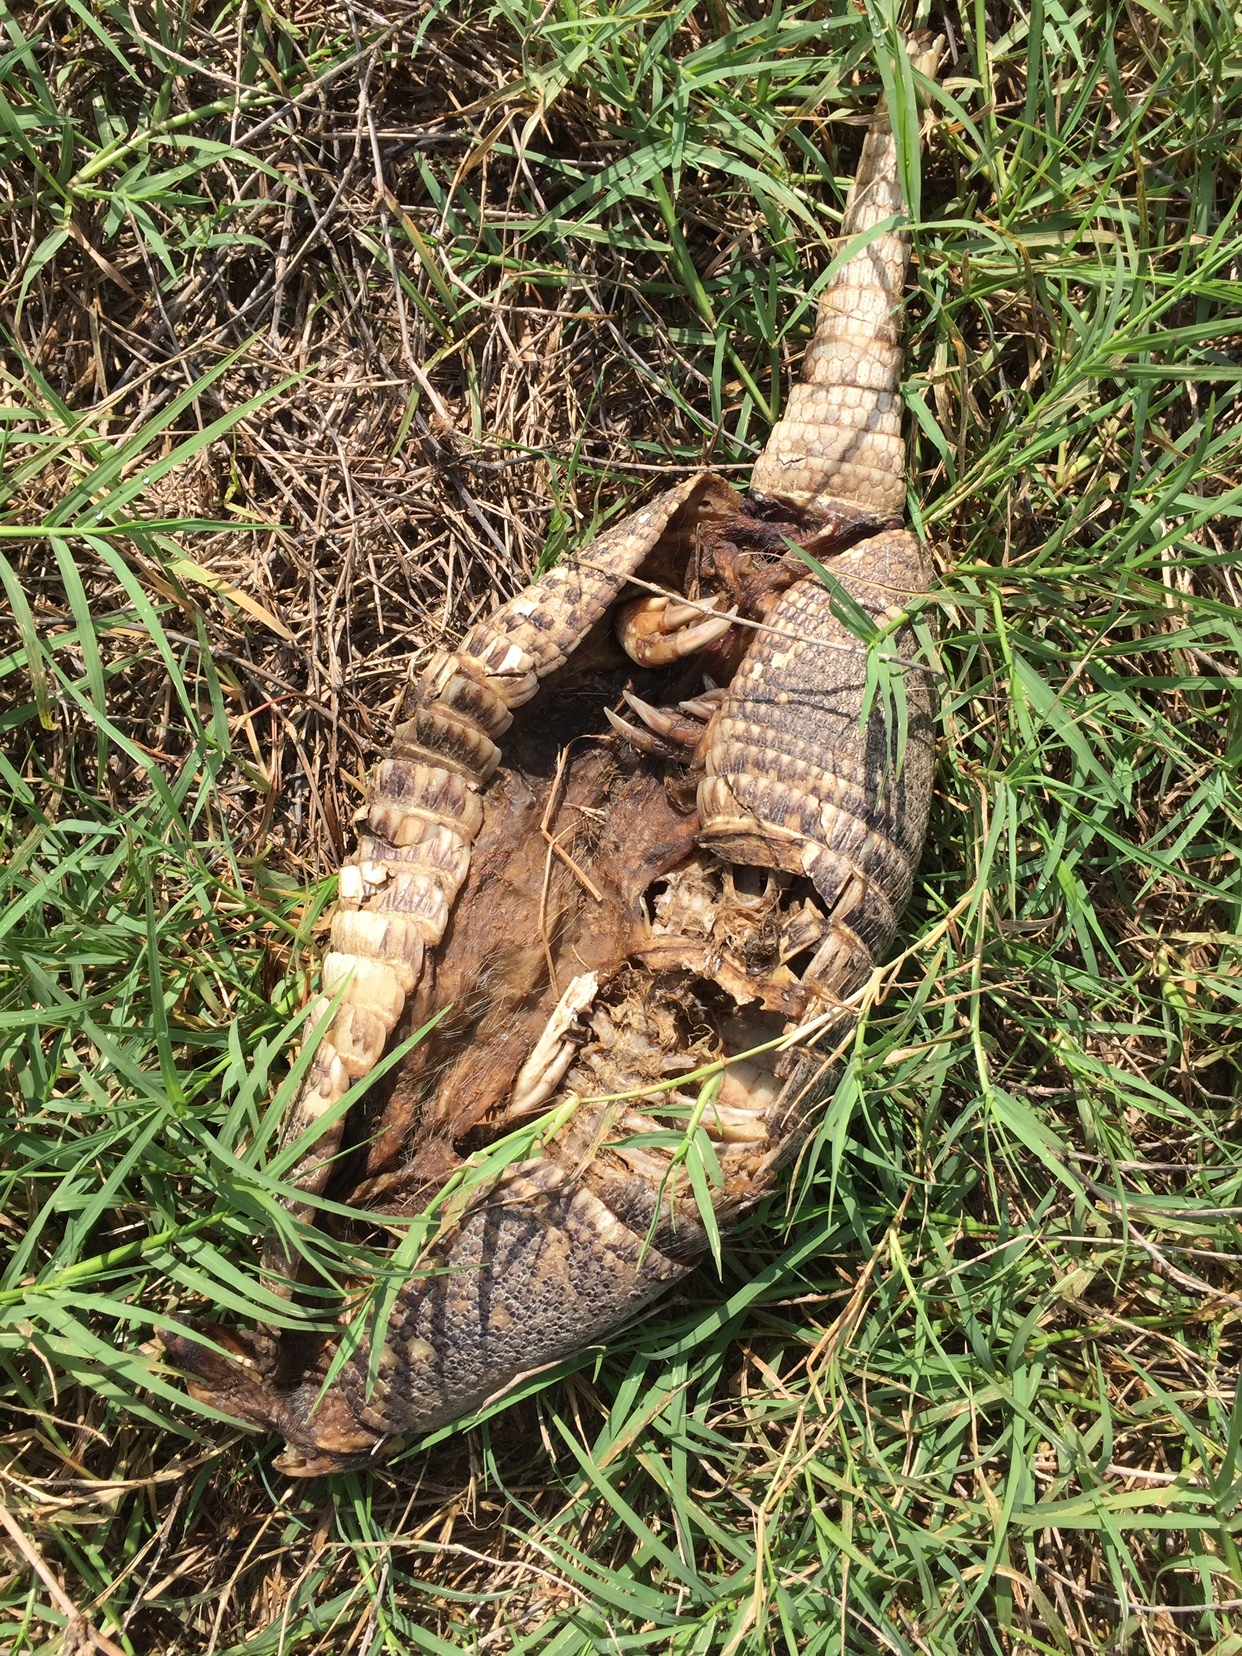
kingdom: Animalia
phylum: Chordata
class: Mammalia
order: Cingulata
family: Dasypodidae
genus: Dasypus
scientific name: Dasypus novemcinctus
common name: Nine-banded armadillo
